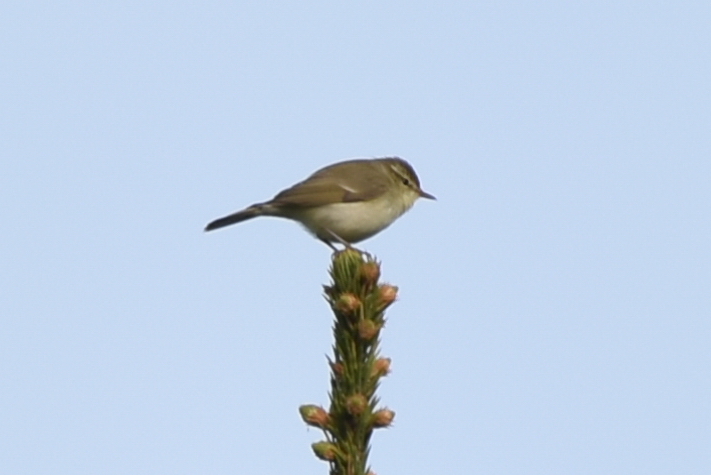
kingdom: Animalia
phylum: Chordata
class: Aves
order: Passeriformes
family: Phylloscopidae
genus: Phylloscopus
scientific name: Phylloscopus trochiloides
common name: Greenish warbler
